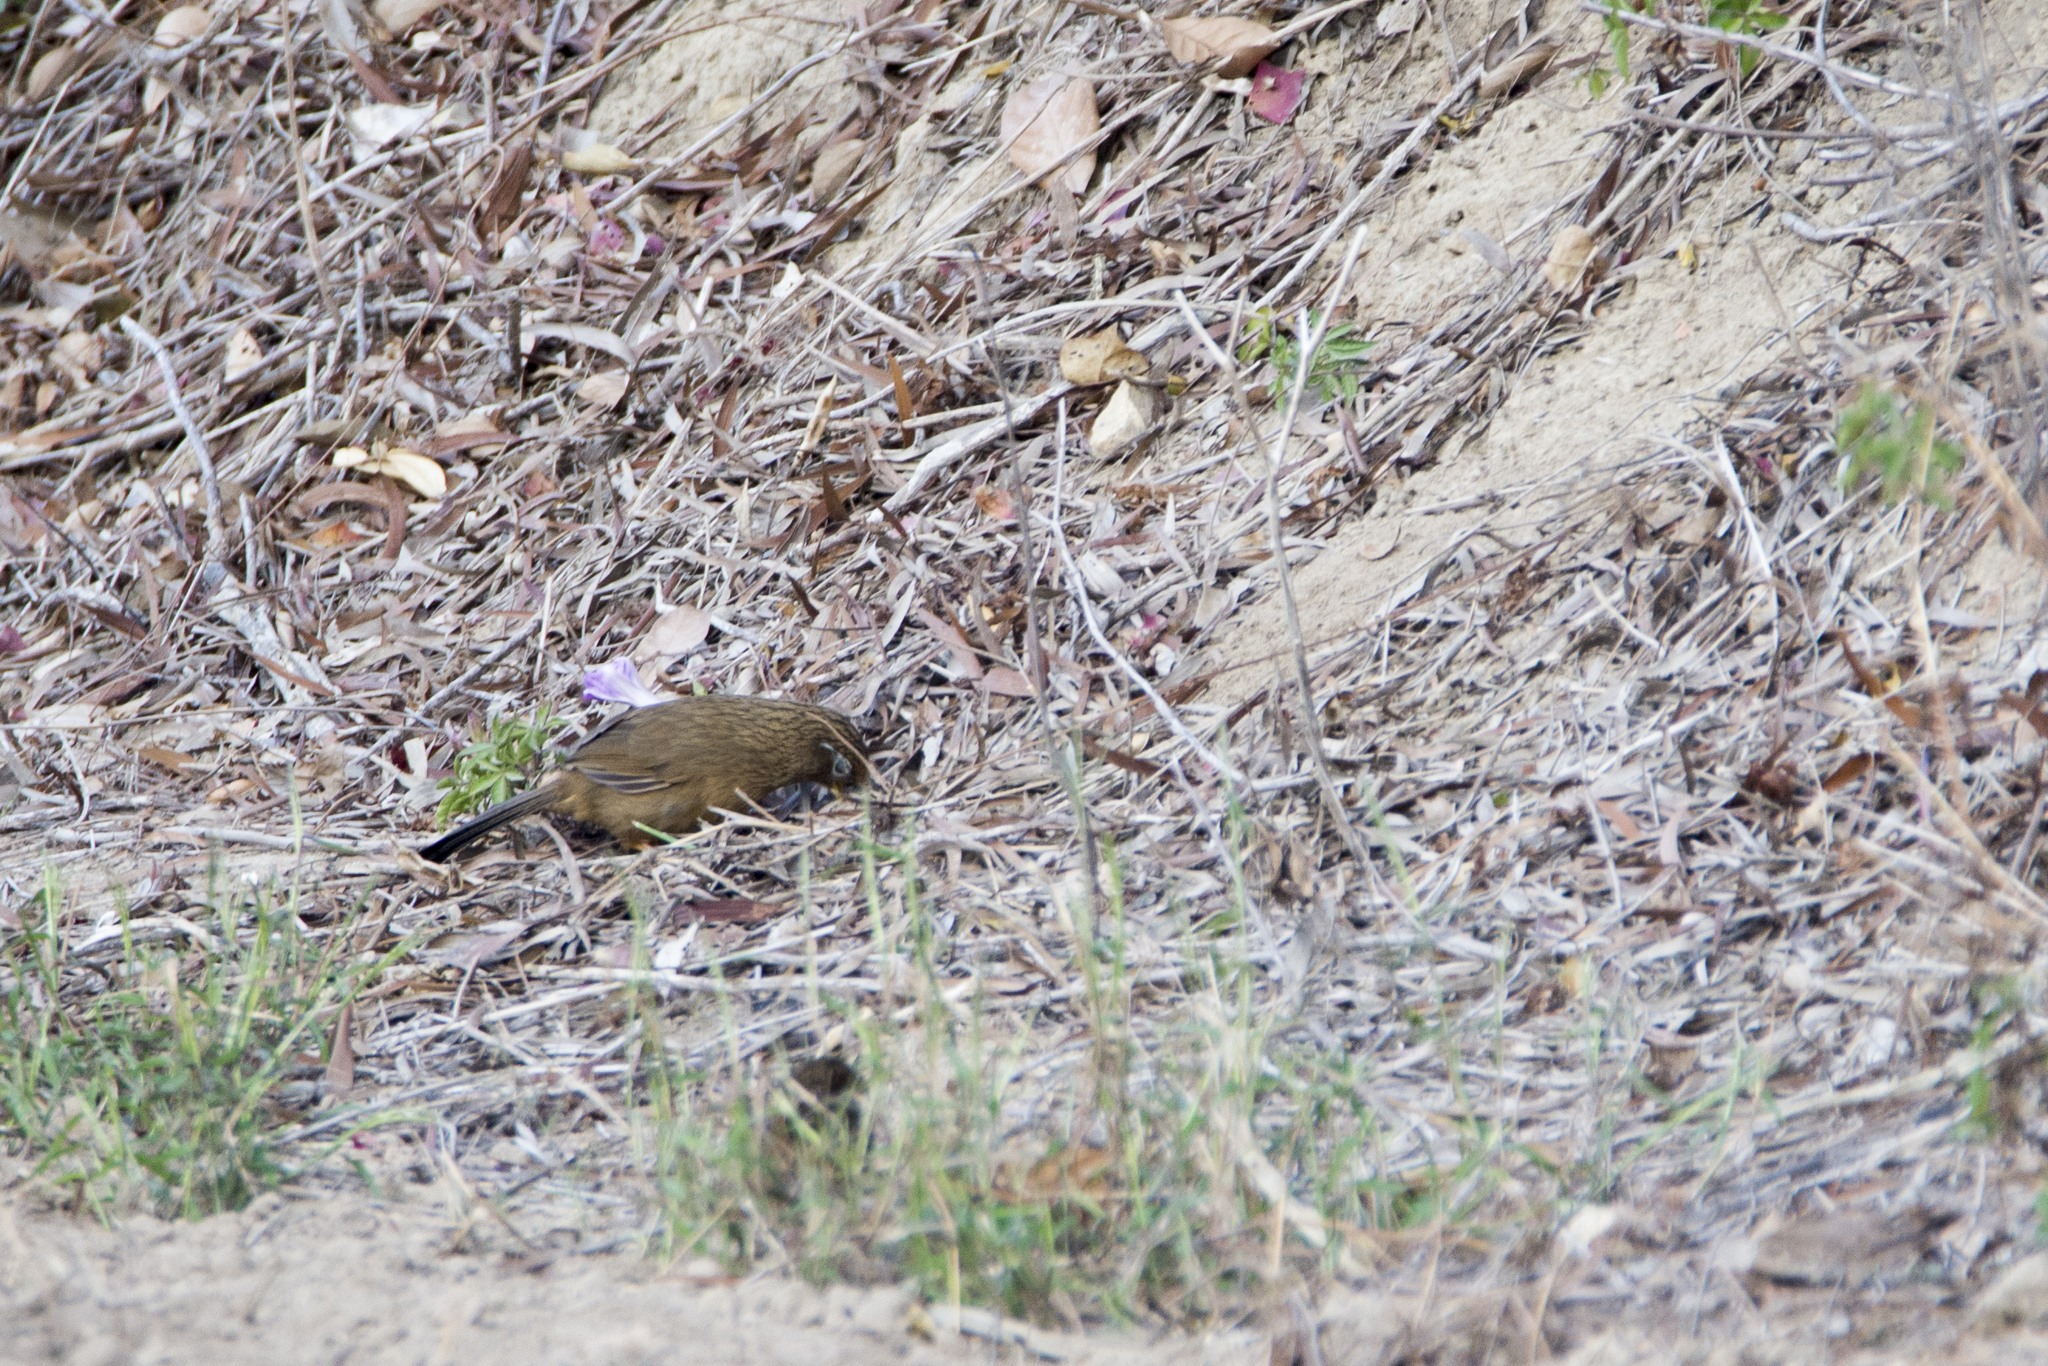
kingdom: Animalia
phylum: Chordata
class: Aves
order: Passeriformes
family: Leiothrichidae
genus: Garrulax
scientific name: Garrulax canorus
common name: Chinese hwamei
